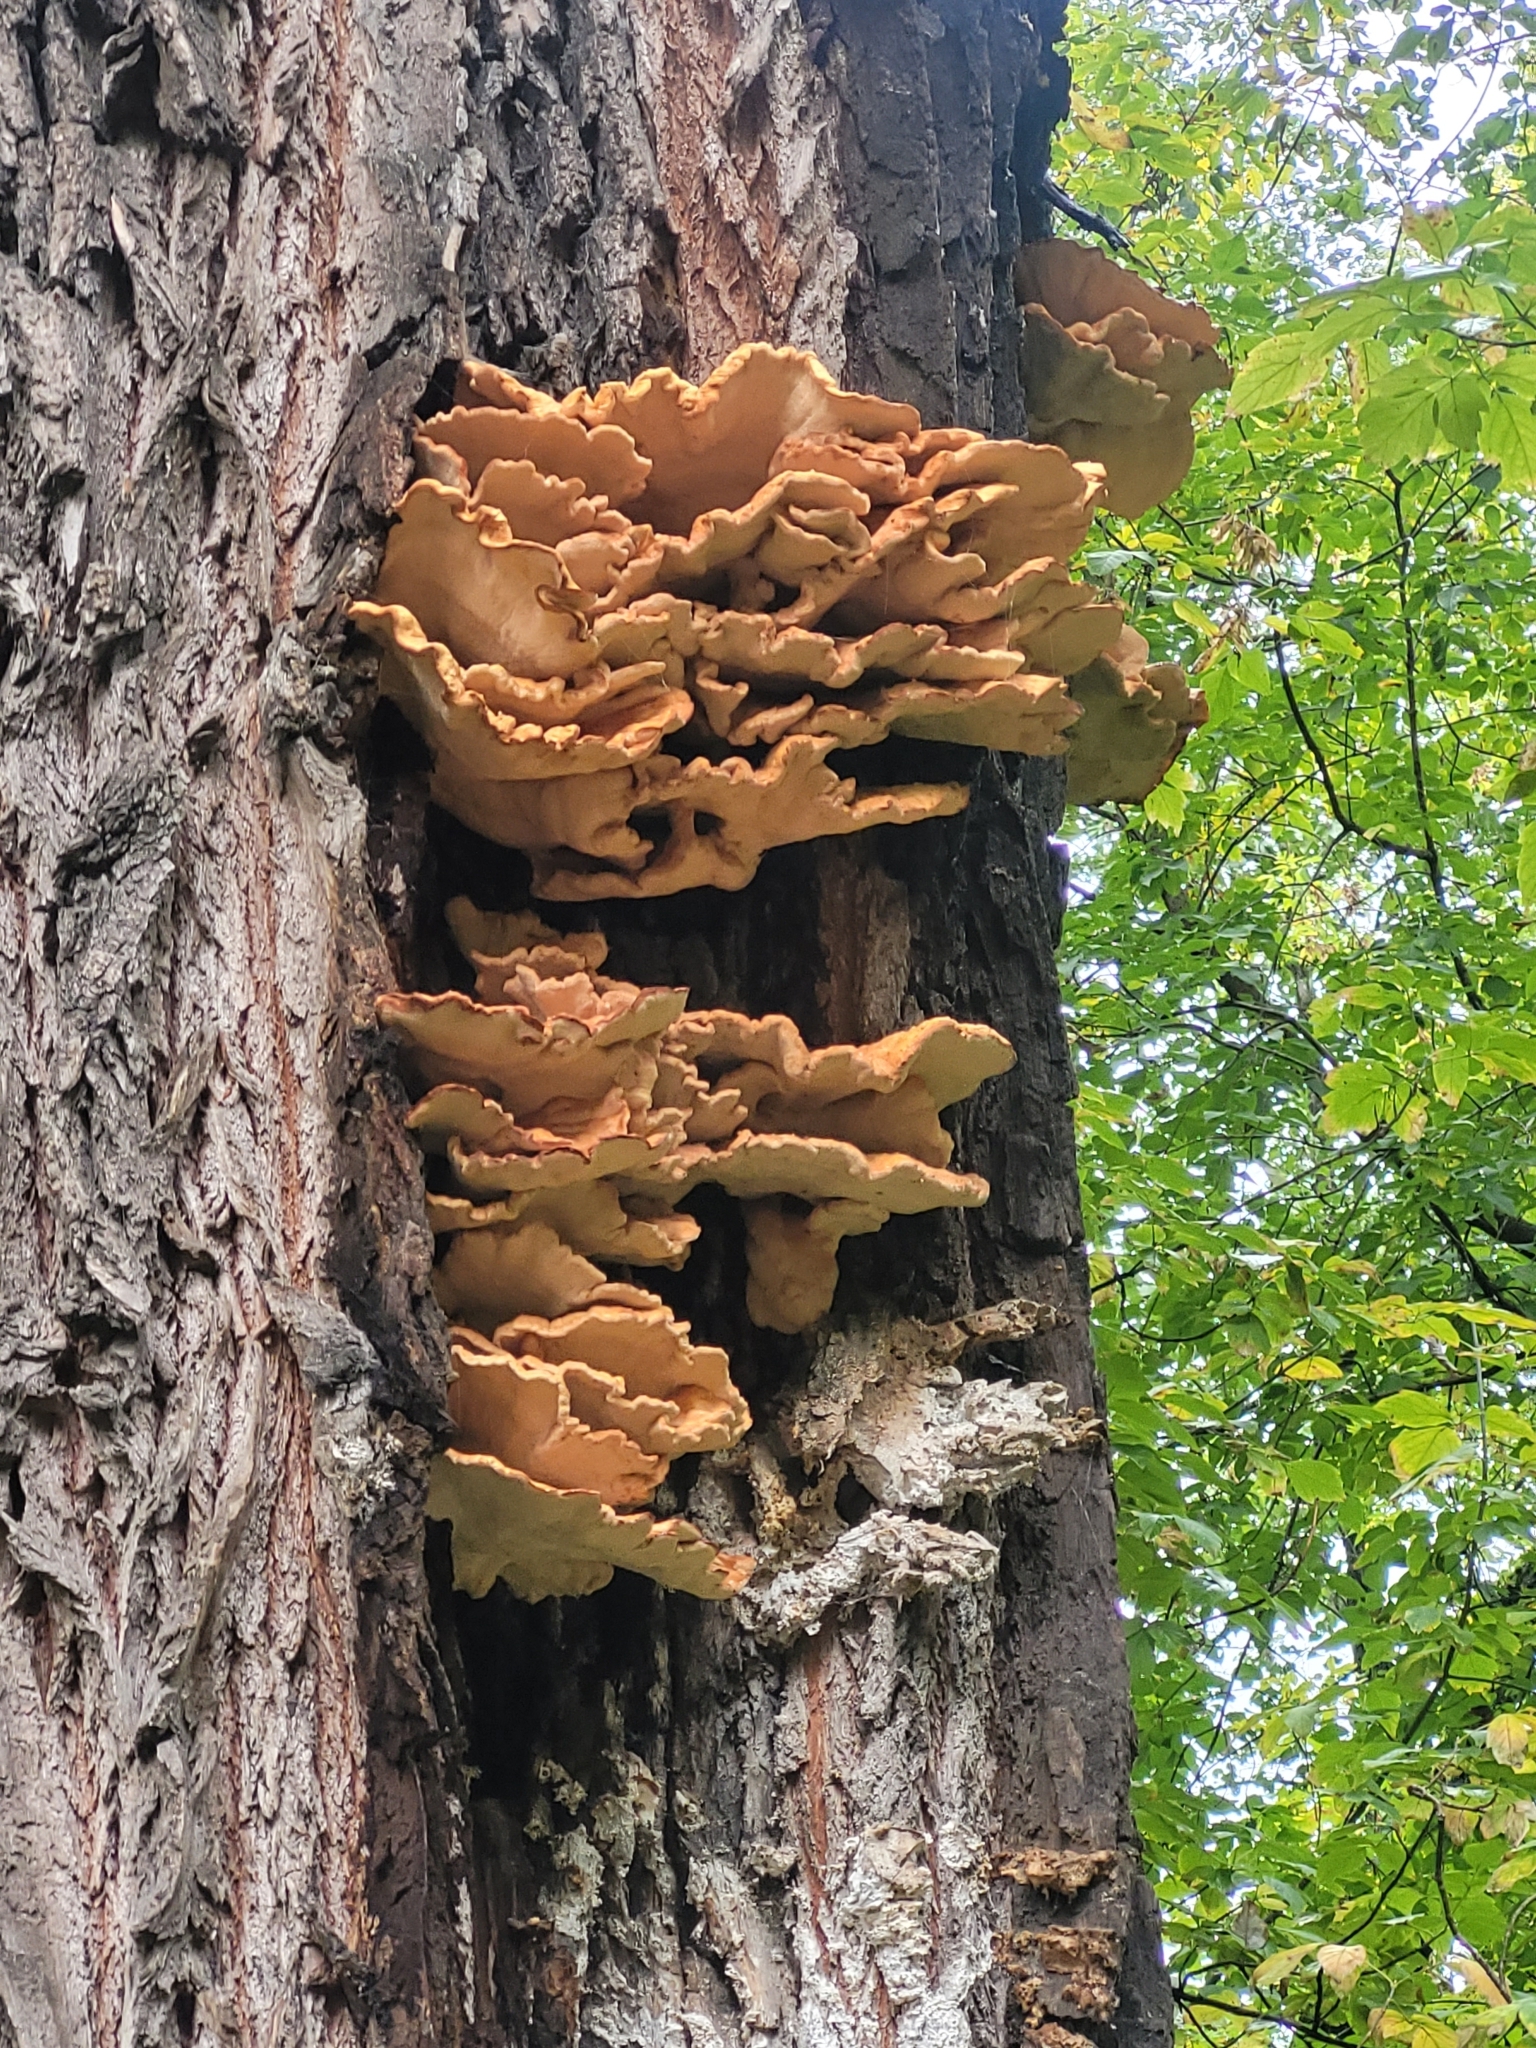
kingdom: Fungi
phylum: Basidiomycota
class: Agaricomycetes
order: Polyporales
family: Laetiporaceae
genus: Laetiporus
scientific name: Laetiporus sulphureus
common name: Chicken of the woods
